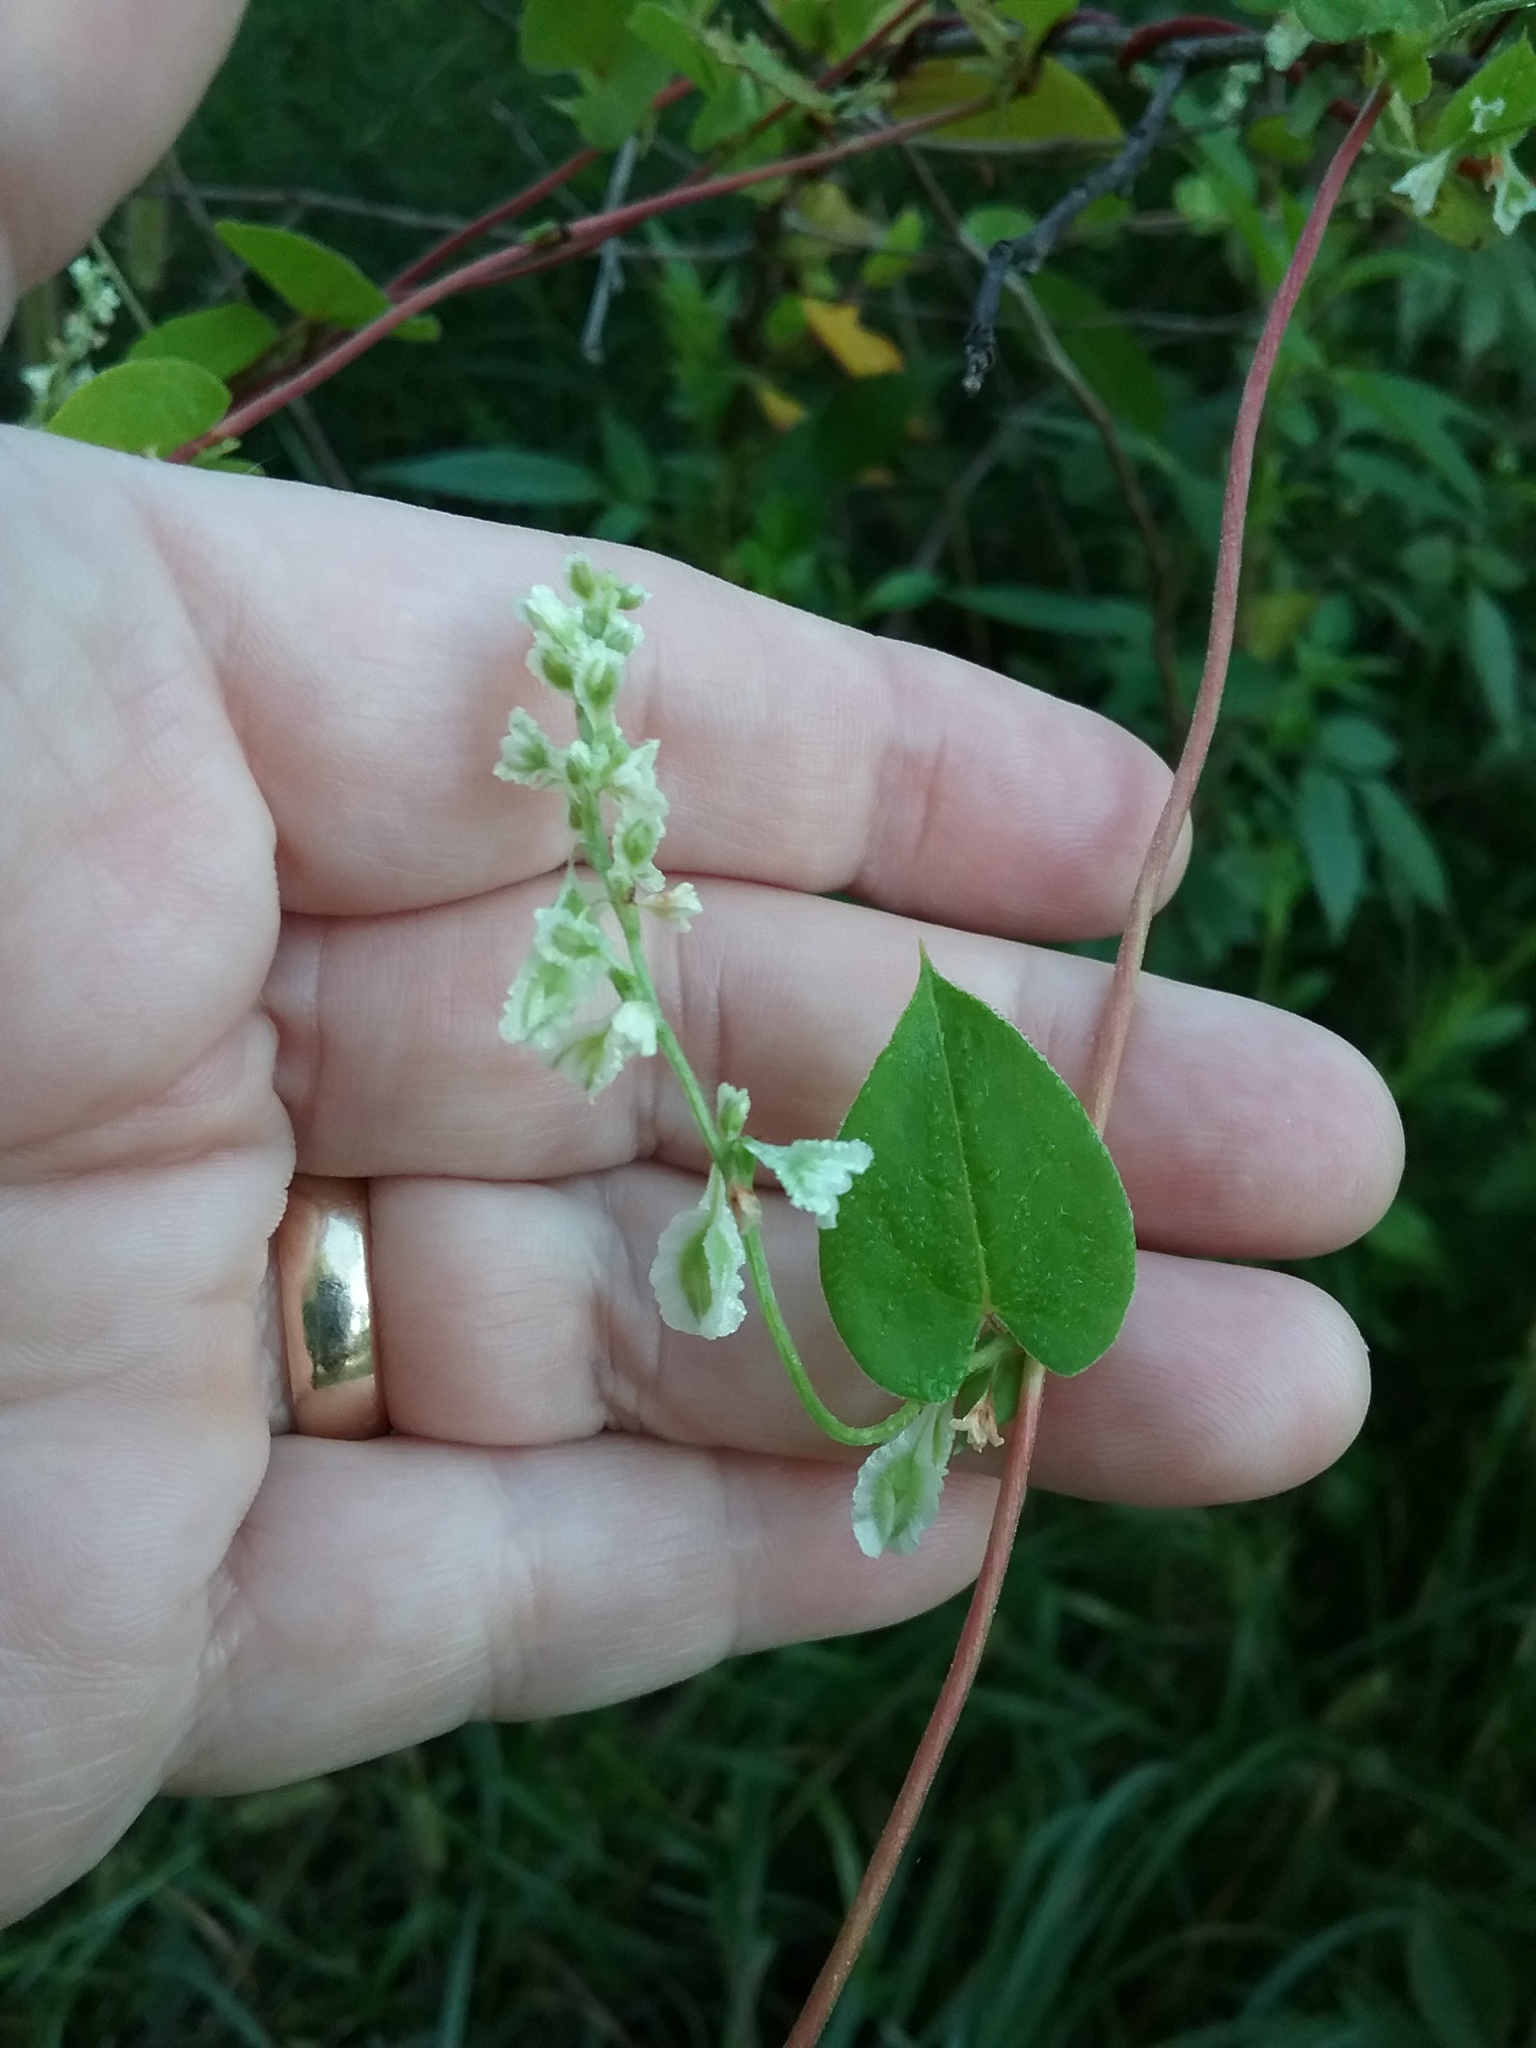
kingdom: Plantae
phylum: Tracheophyta
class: Magnoliopsida
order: Caryophyllales
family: Polygonaceae
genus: Fallopia
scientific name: Fallopia scandens
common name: Climbing false buckwheat
